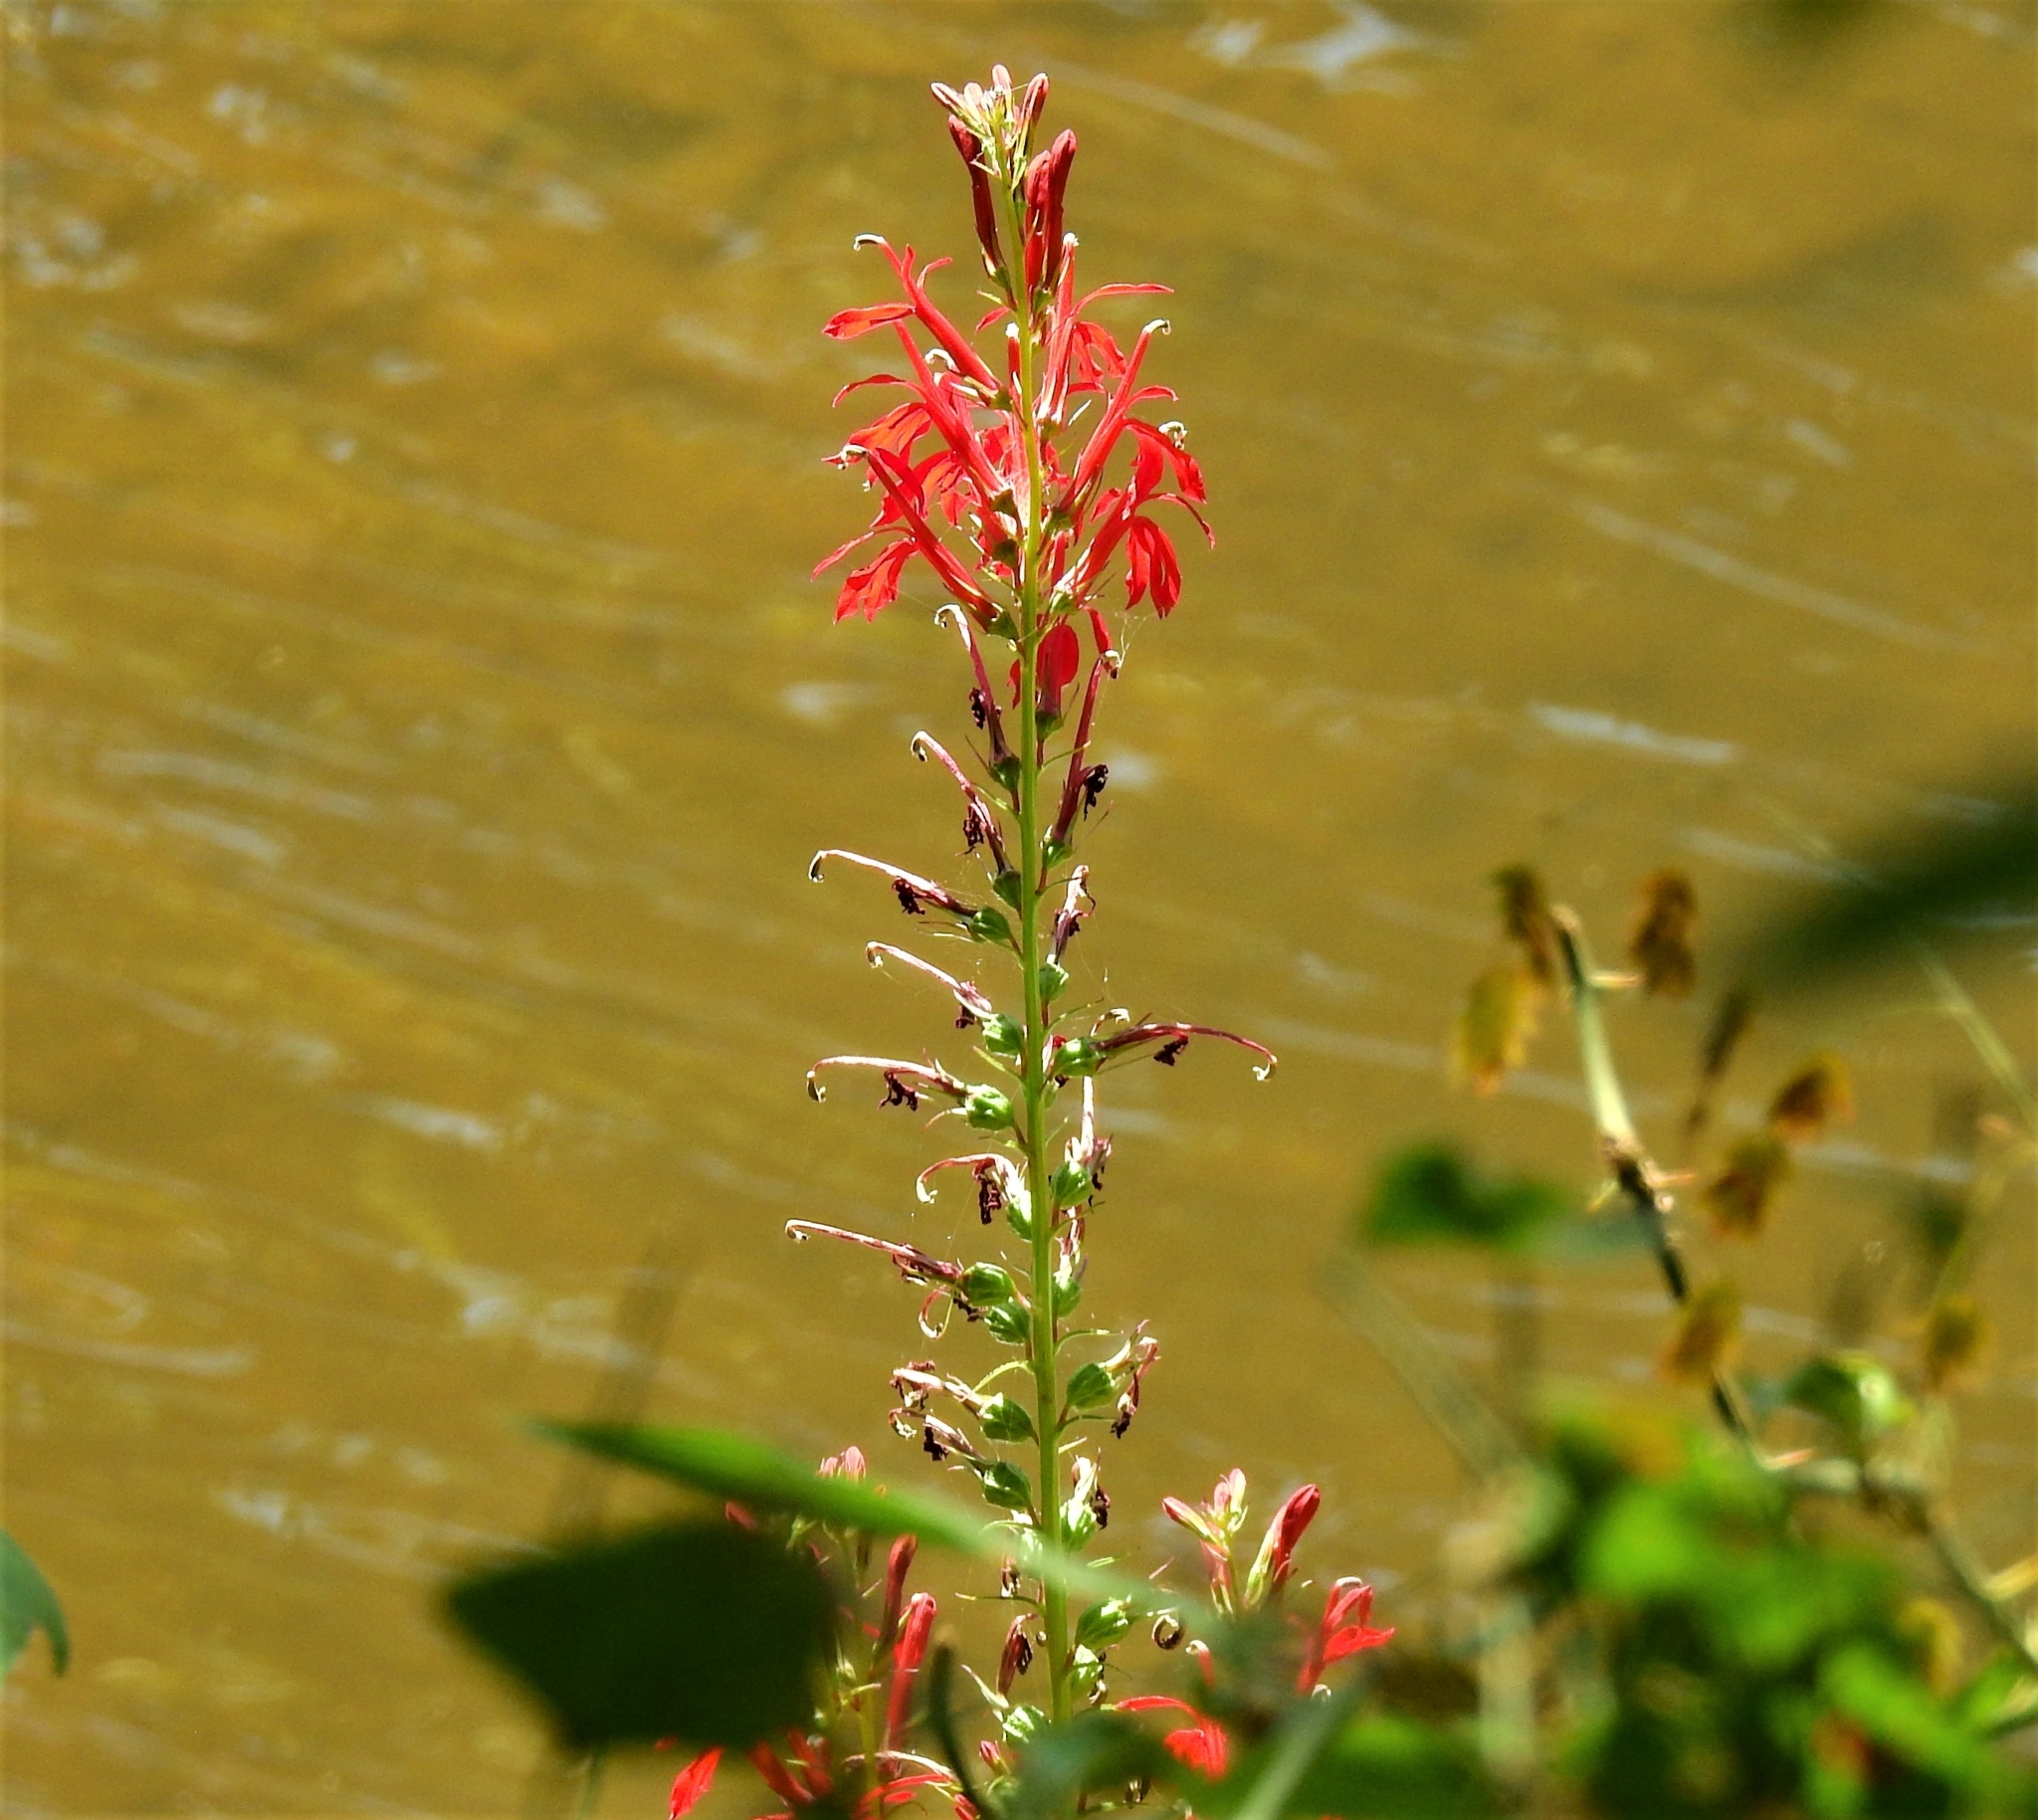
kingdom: Plantae
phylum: Tracheophyta
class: Magnoliopsida
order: Asterales
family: Campanulaceae
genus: Lobelia
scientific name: Lobelia cardinalis
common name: Cardinal flower
